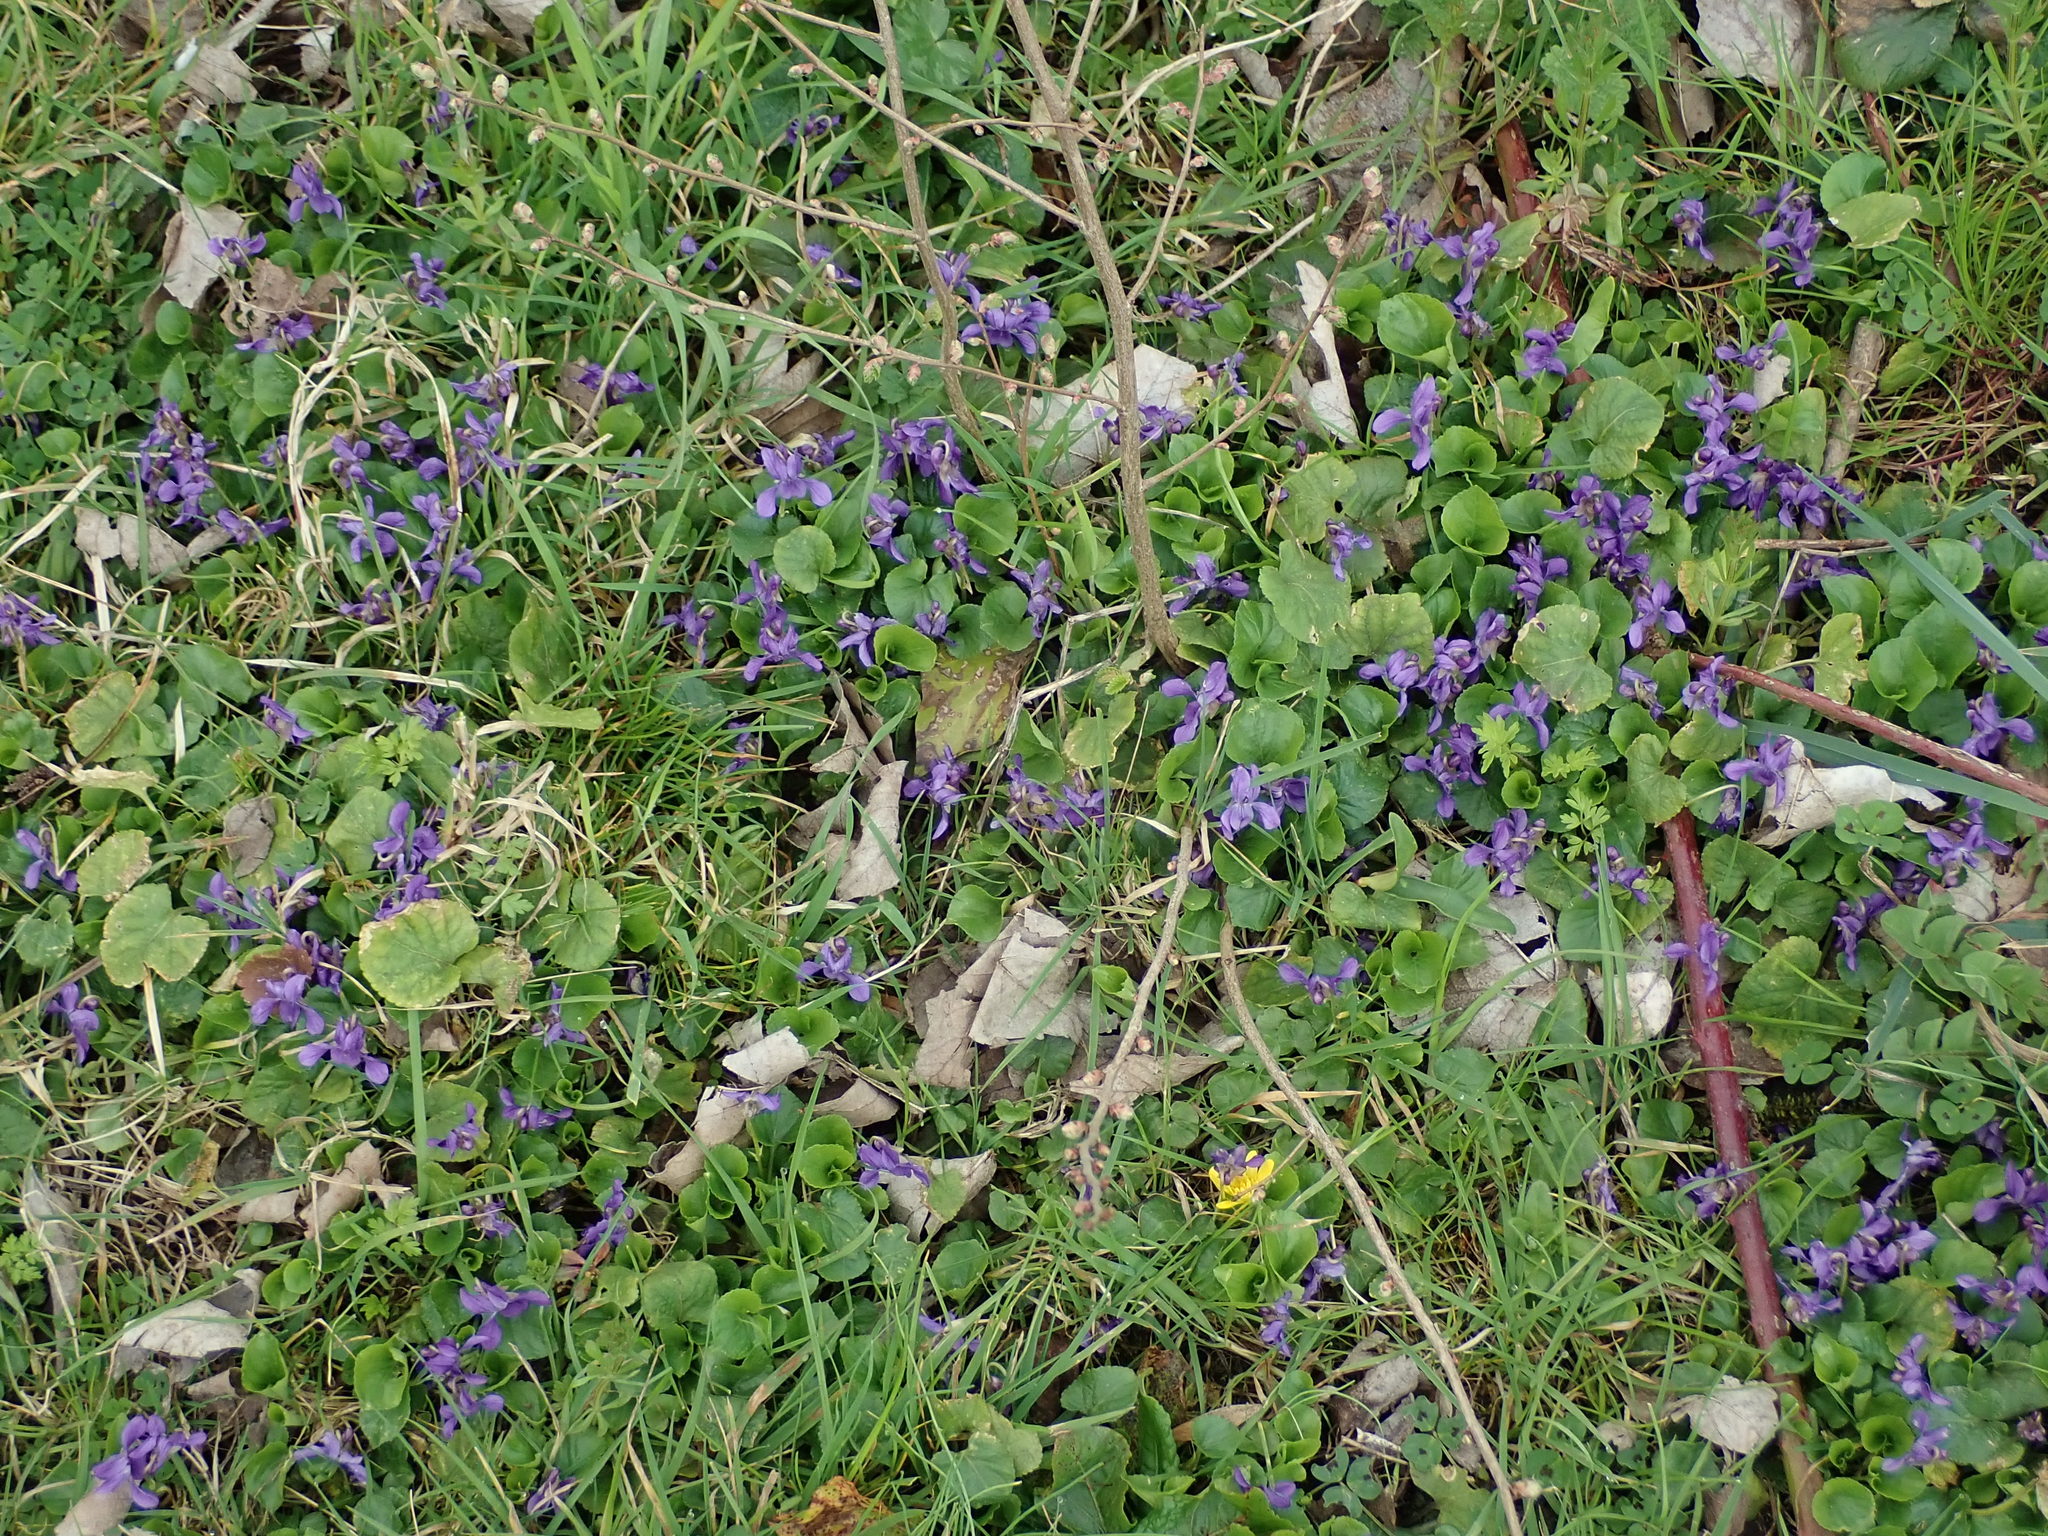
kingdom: Plantae
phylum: Tracheophyta
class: Magnoliopsida
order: Malpighiales
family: Violaceae
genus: Viola
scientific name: Viola odorata
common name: Sweet violet
